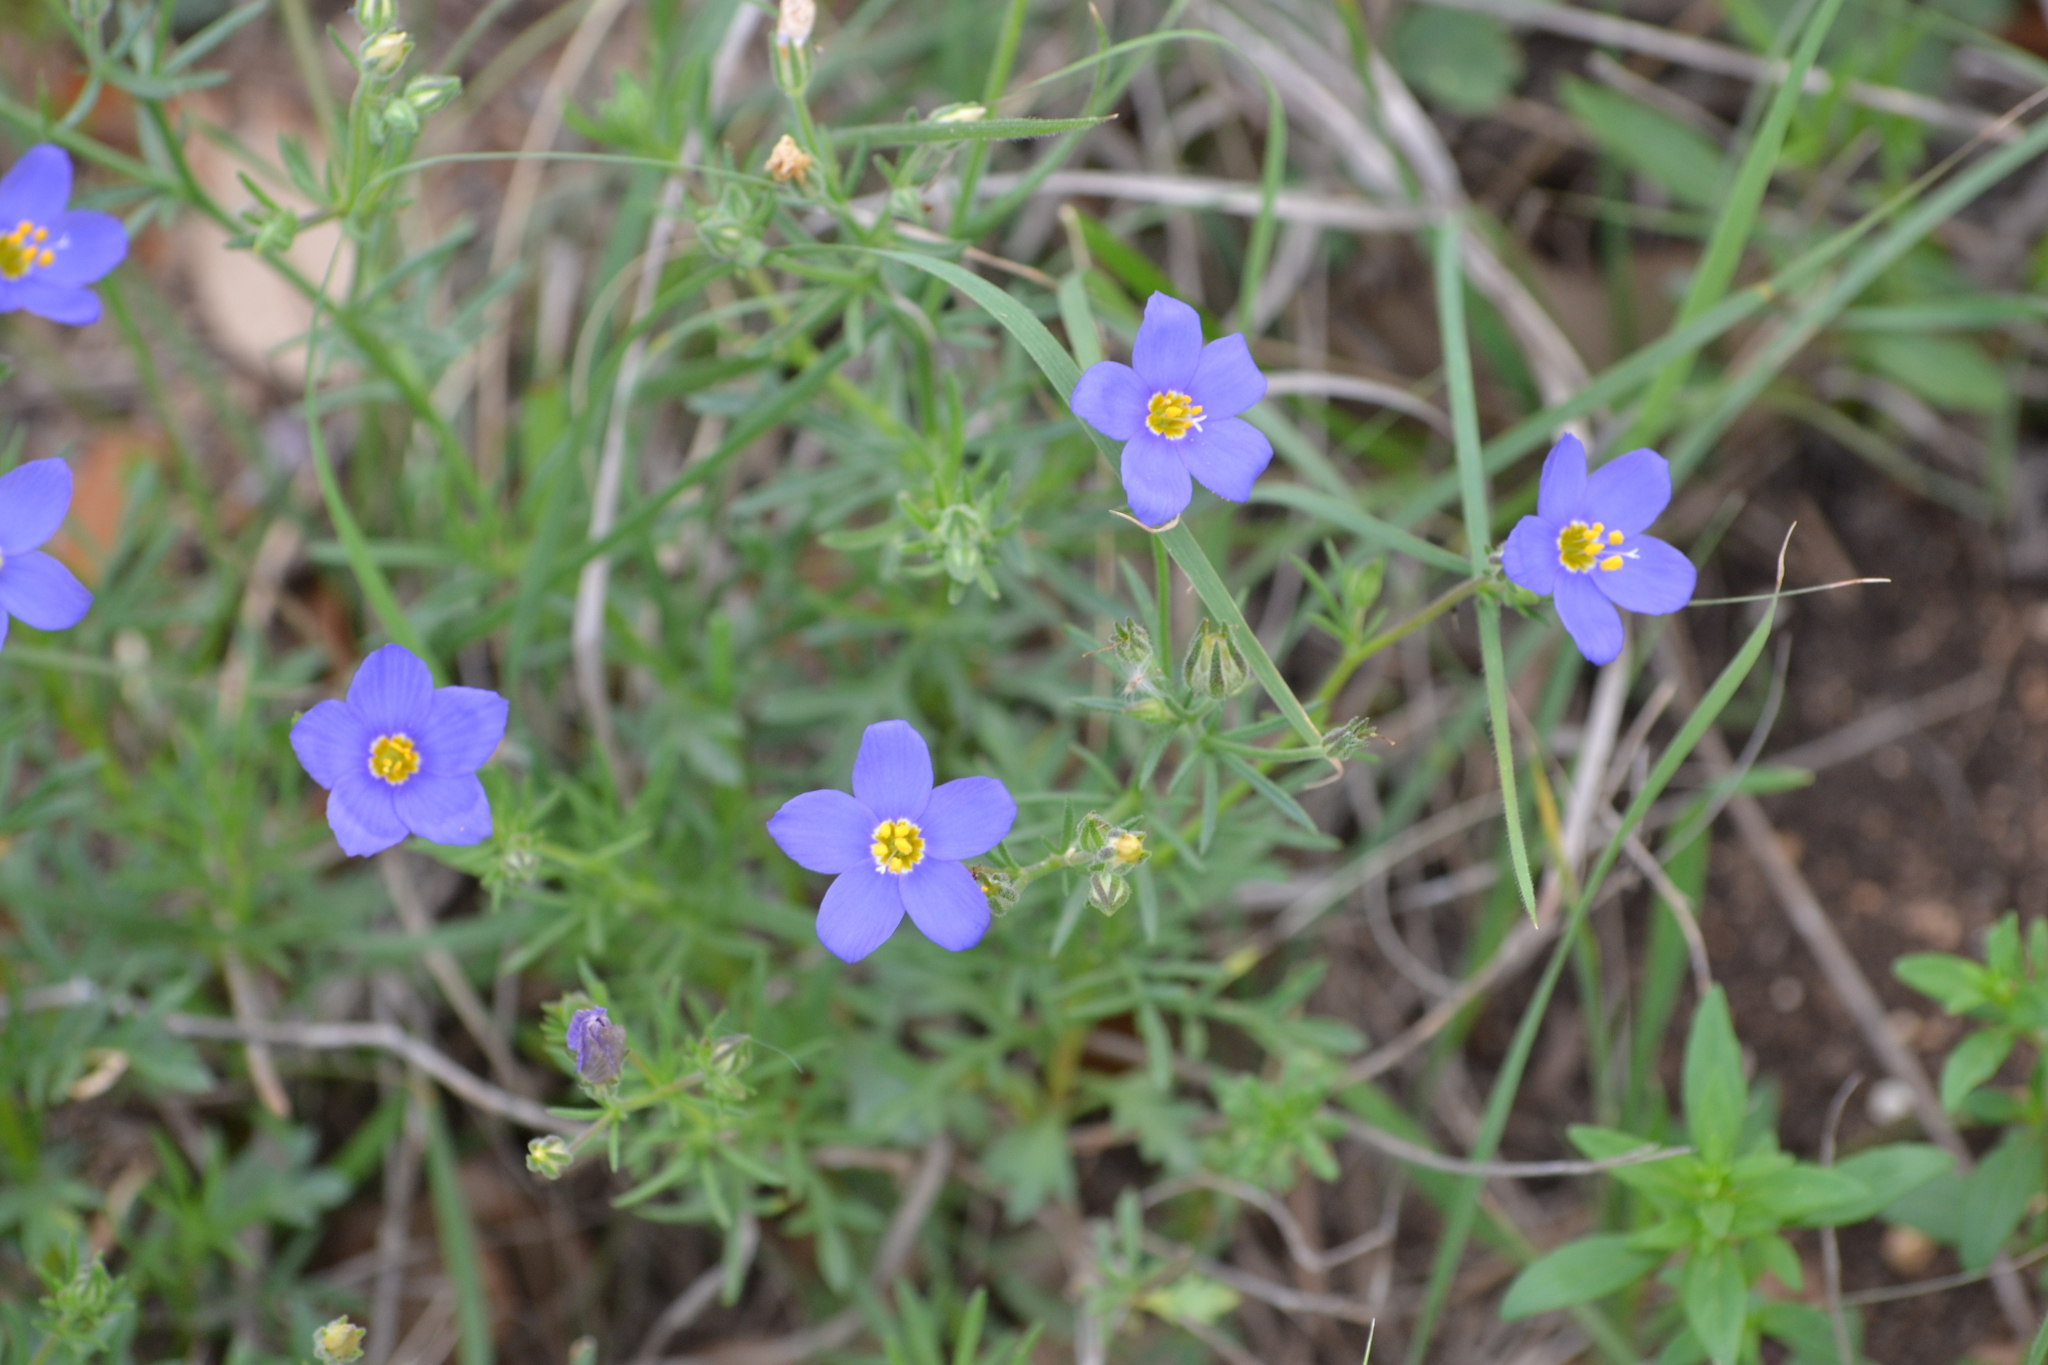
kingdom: Plantae
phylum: Tracheophyta
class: Magnoliopsida
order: Ericales
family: Polemoniaceae
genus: Giliastrum
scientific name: Giliastrum rigidulum
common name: Bluebowls
